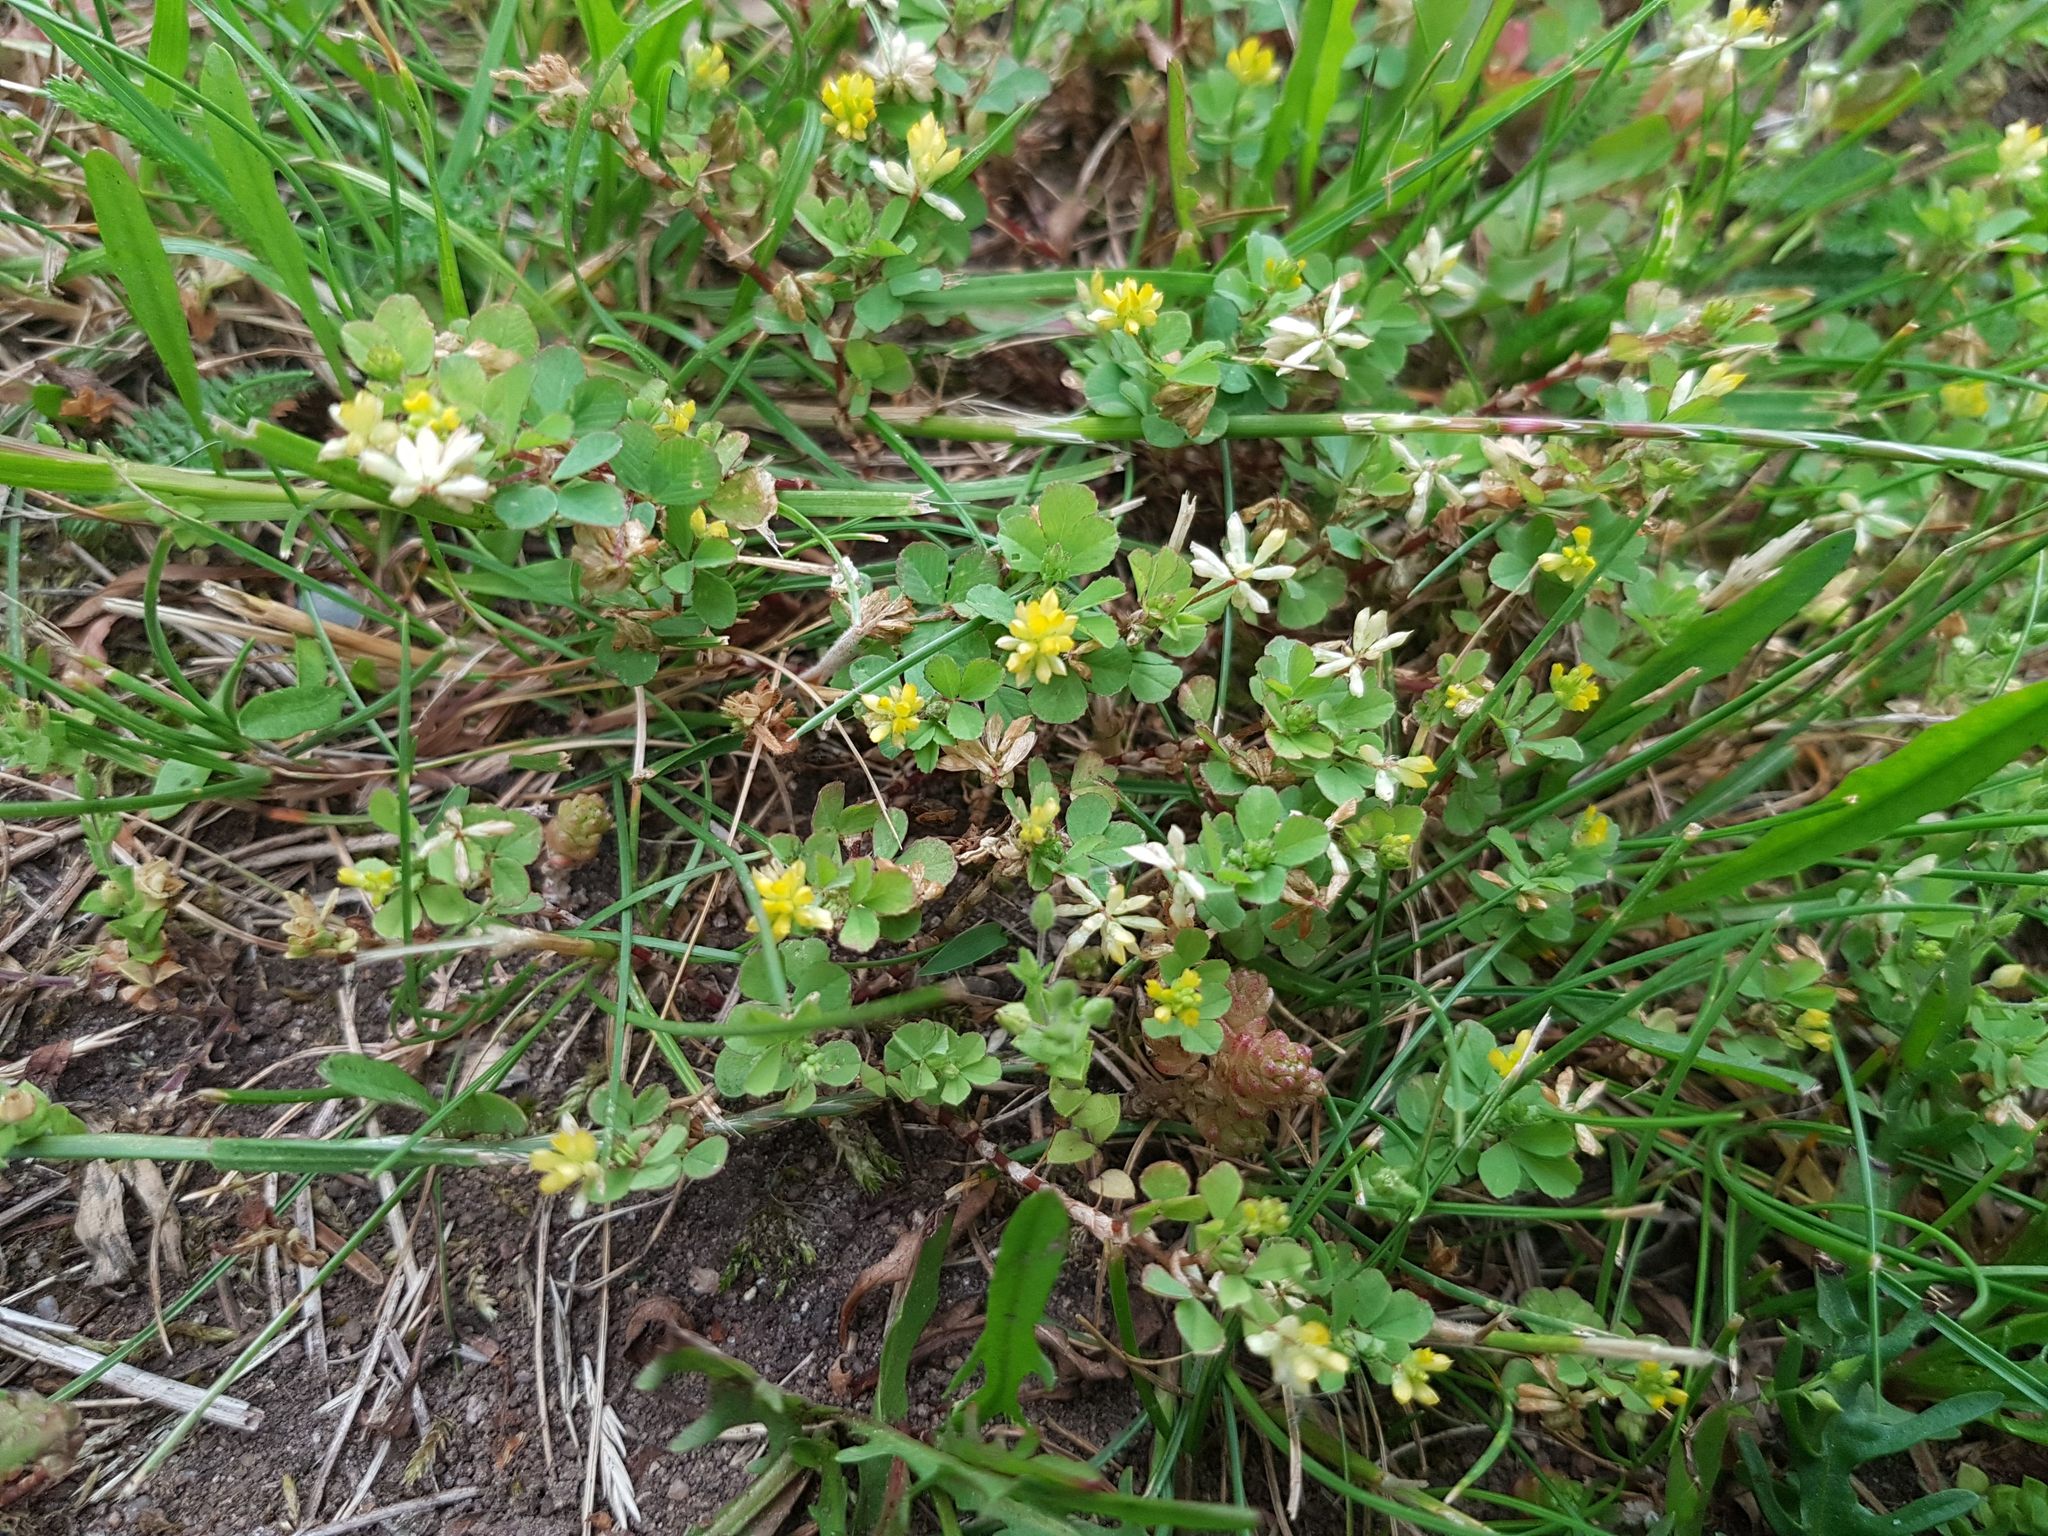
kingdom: Plantae
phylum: Tracheophyta
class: Magnoliopsida
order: Fabales
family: Fabaceae
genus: Trifolium
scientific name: Trifolium dubium
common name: Suckling clover
